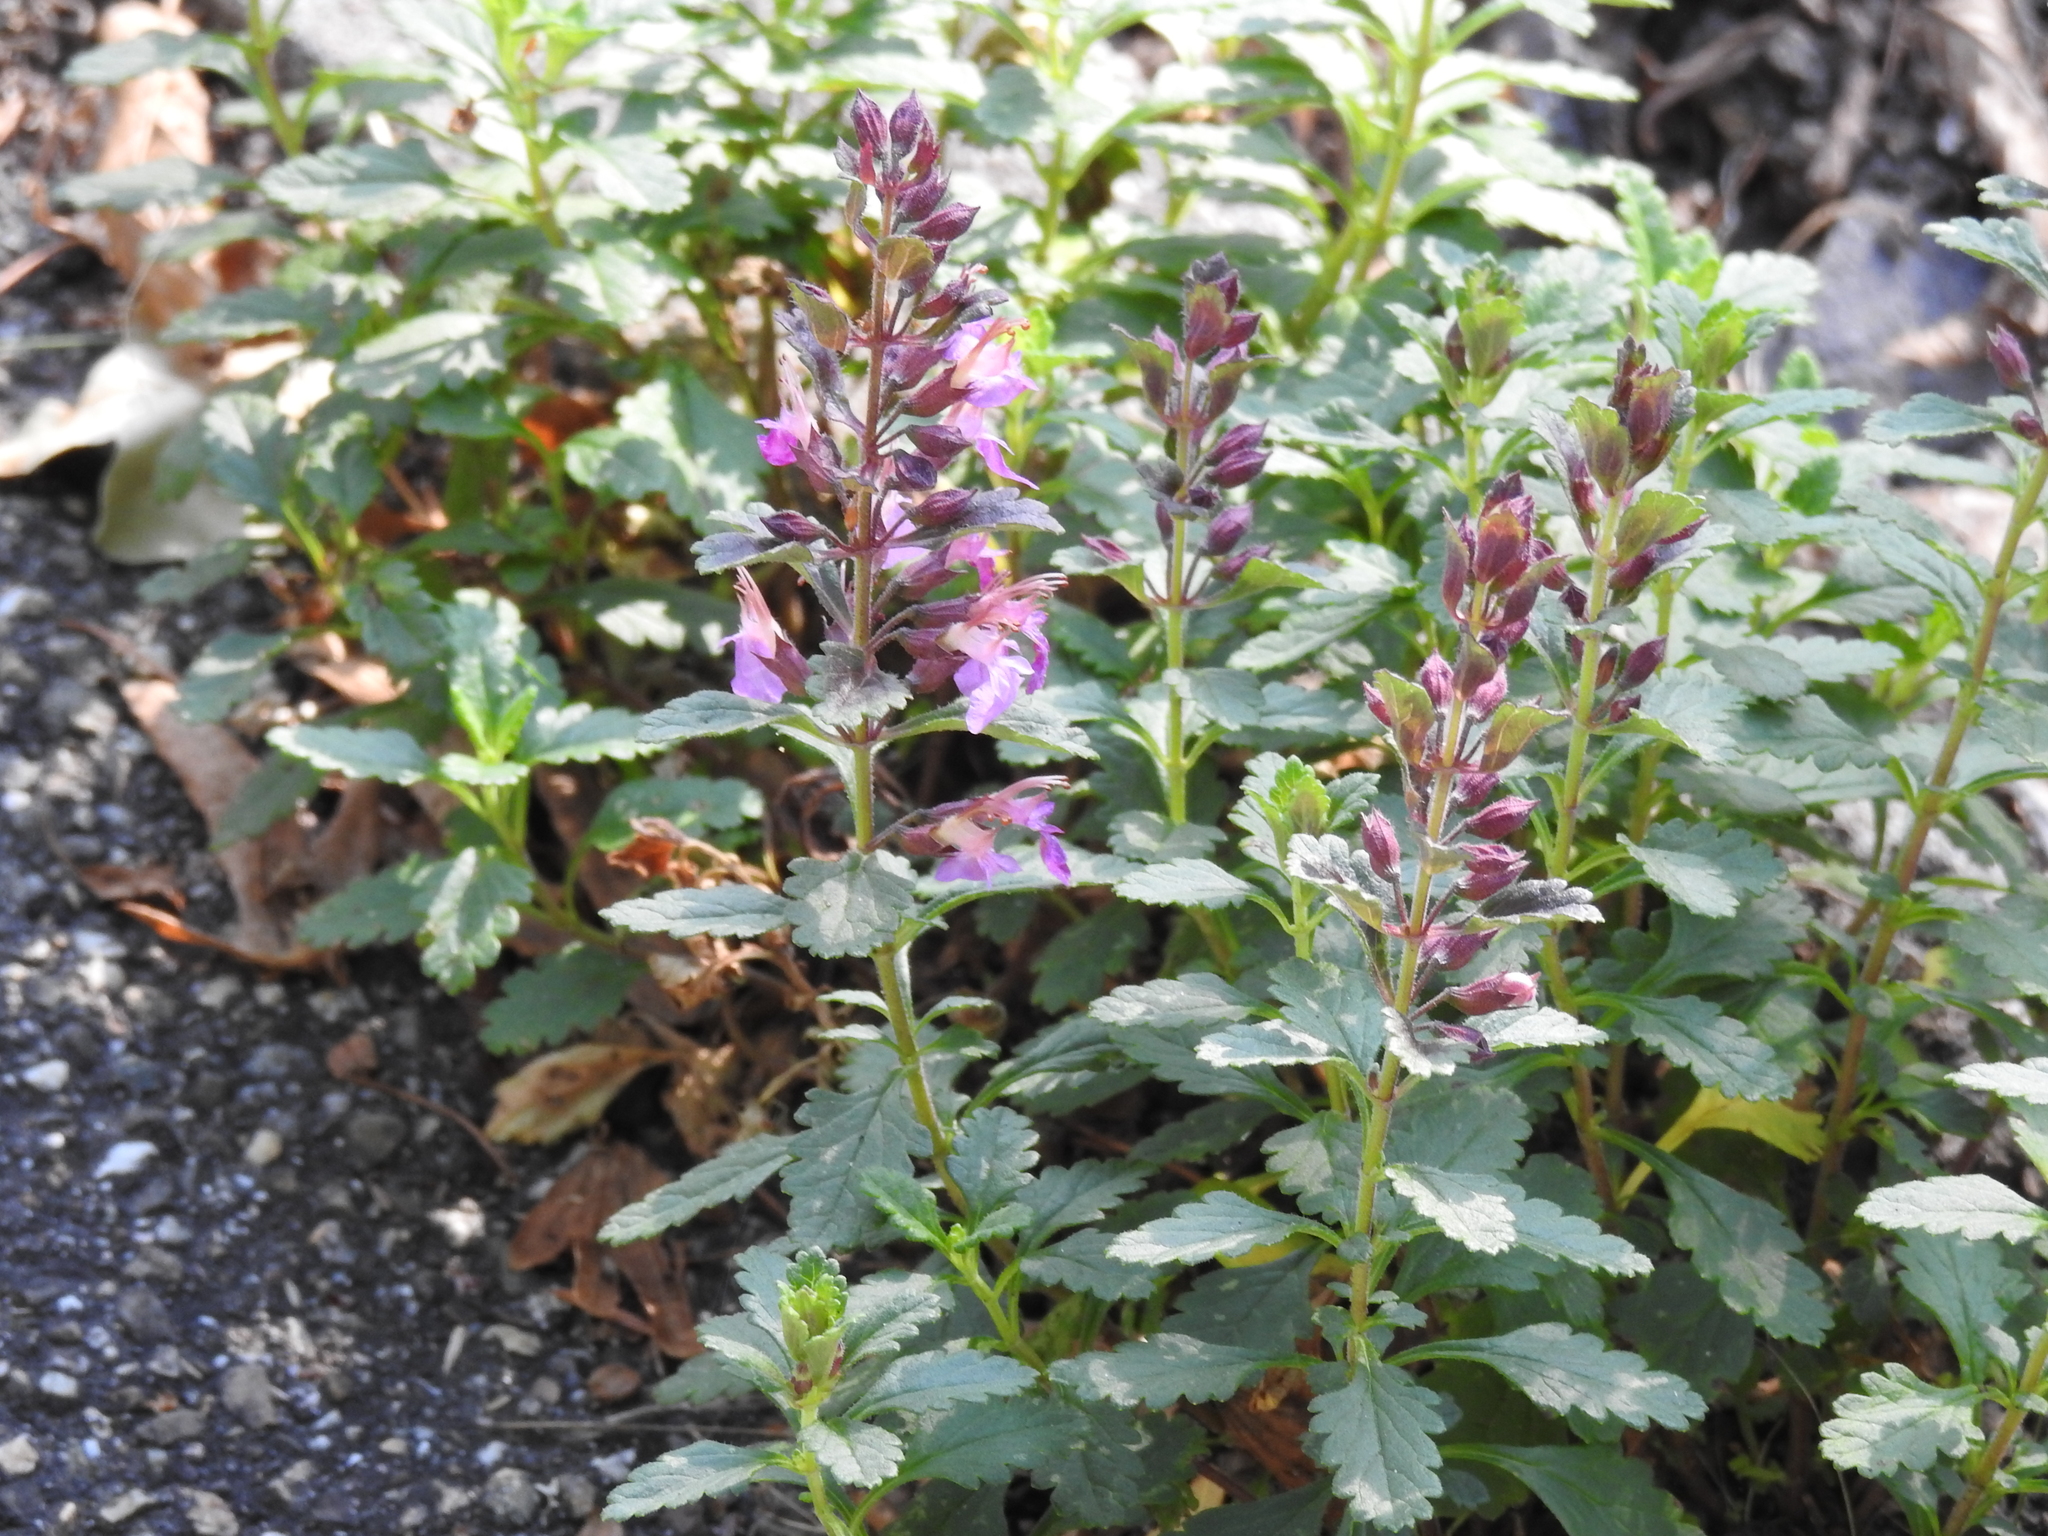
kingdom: Plantae
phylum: Tracheophyta
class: Magnoliopsida
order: Lamiales
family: Lamiaceae
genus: Teucrium
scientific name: Teucrium chamaedrys
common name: Wall germander
